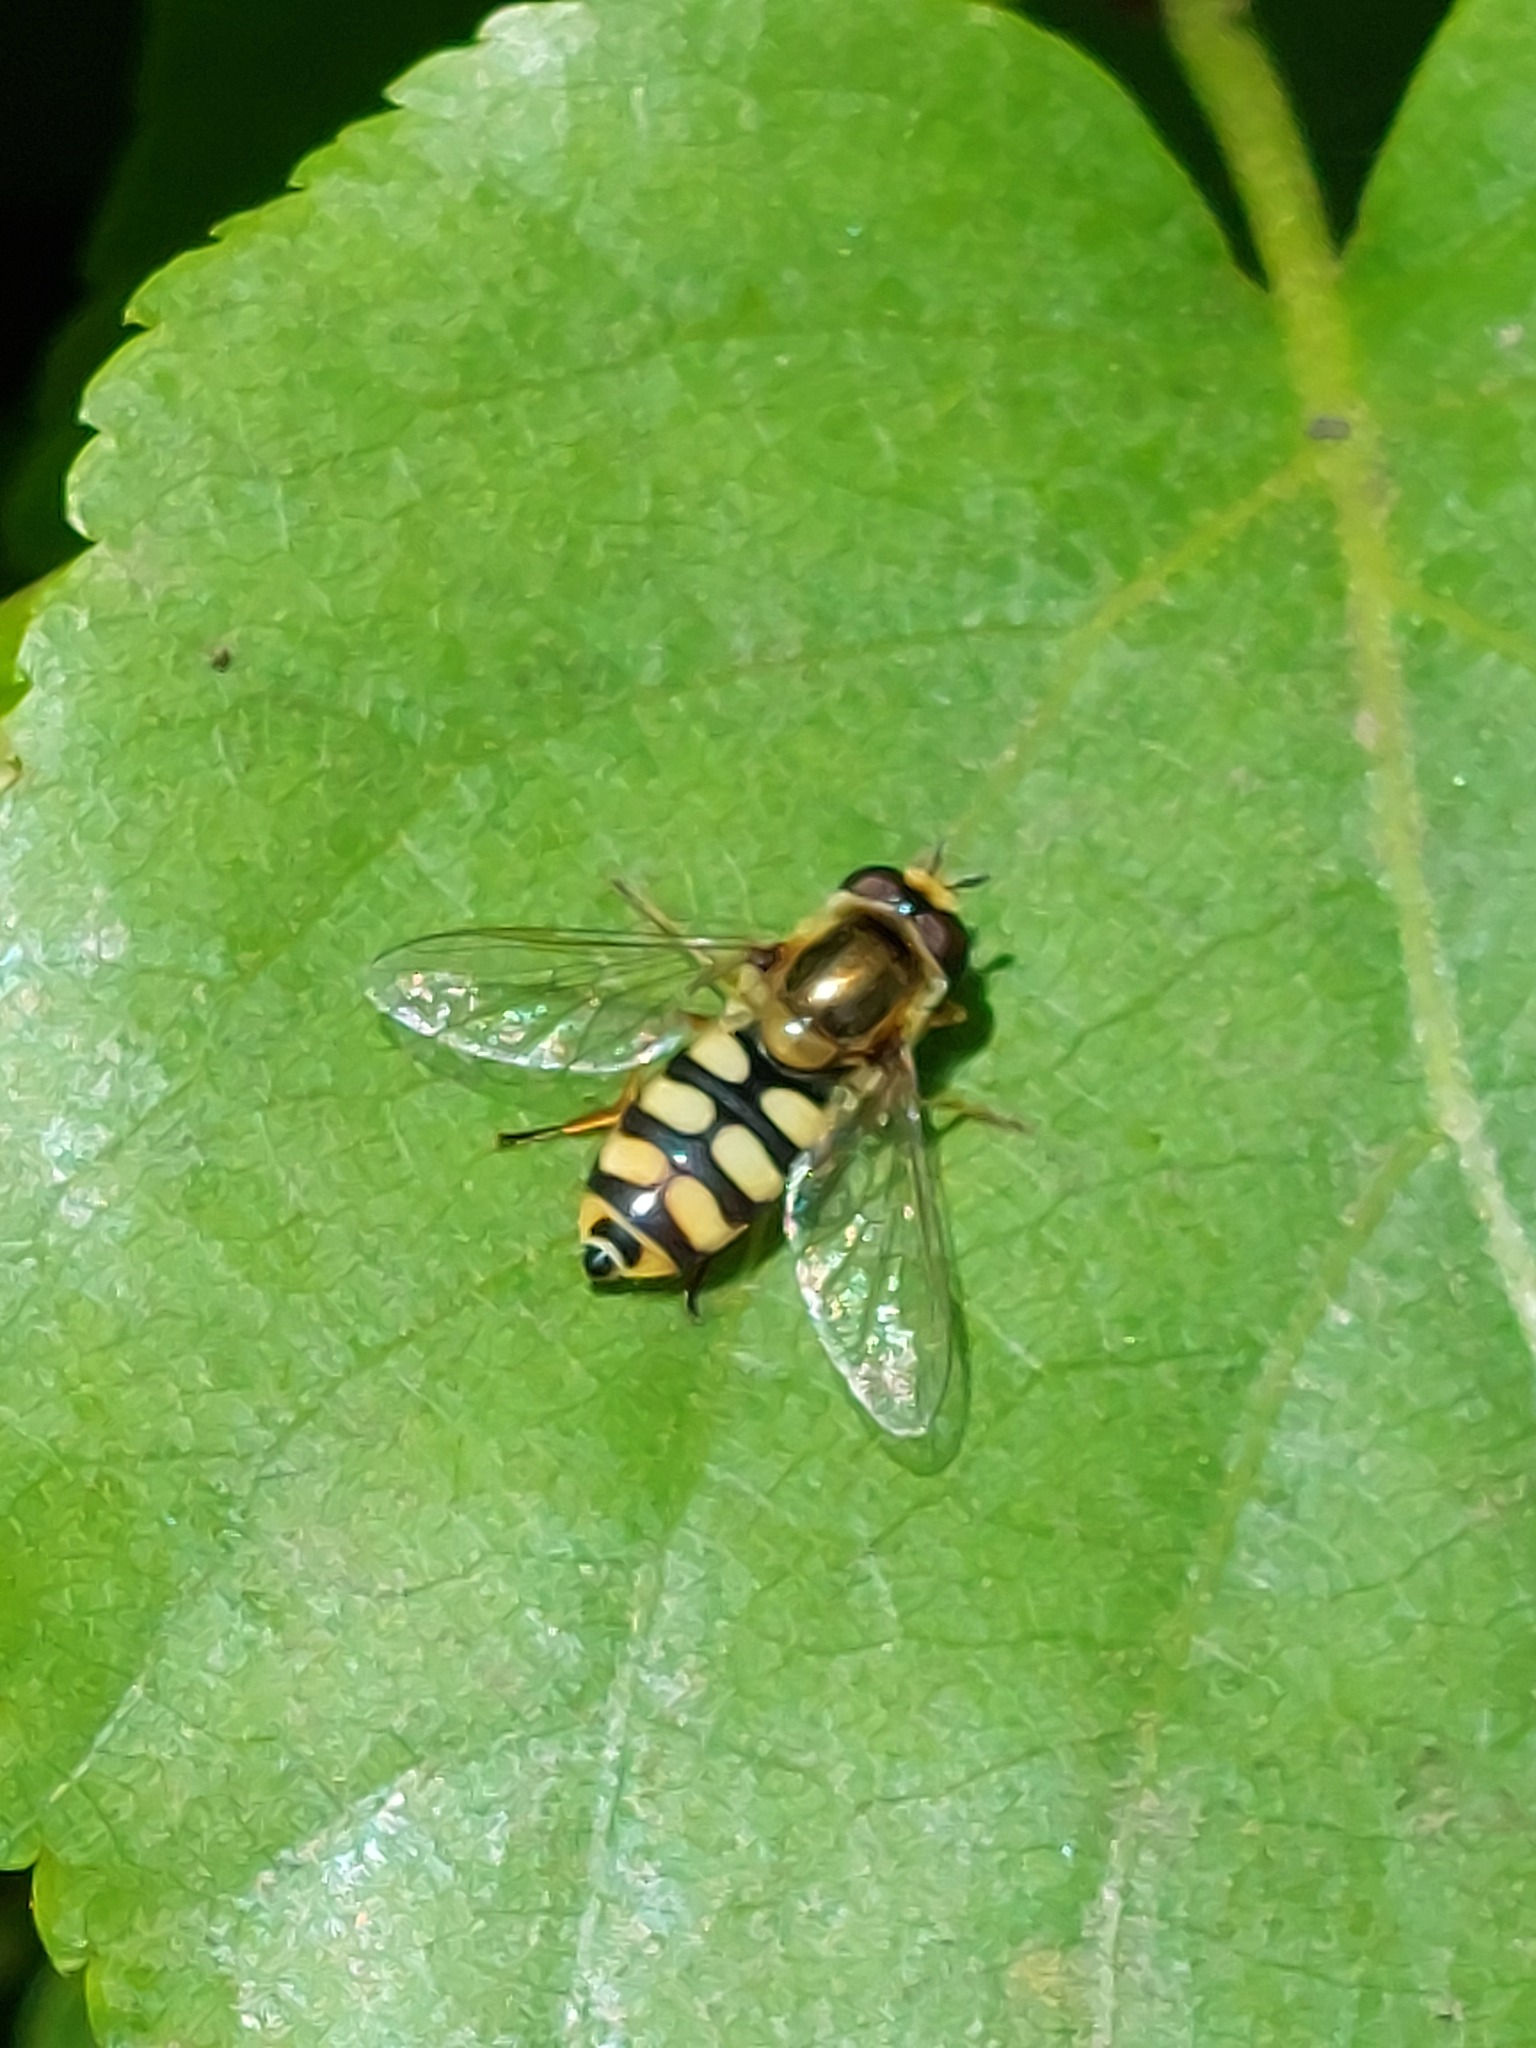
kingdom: Animalia
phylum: Arthropoda
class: Insecta
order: Diptera
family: Syrphidae
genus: Eupeodes
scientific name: Eupeodes corollae
